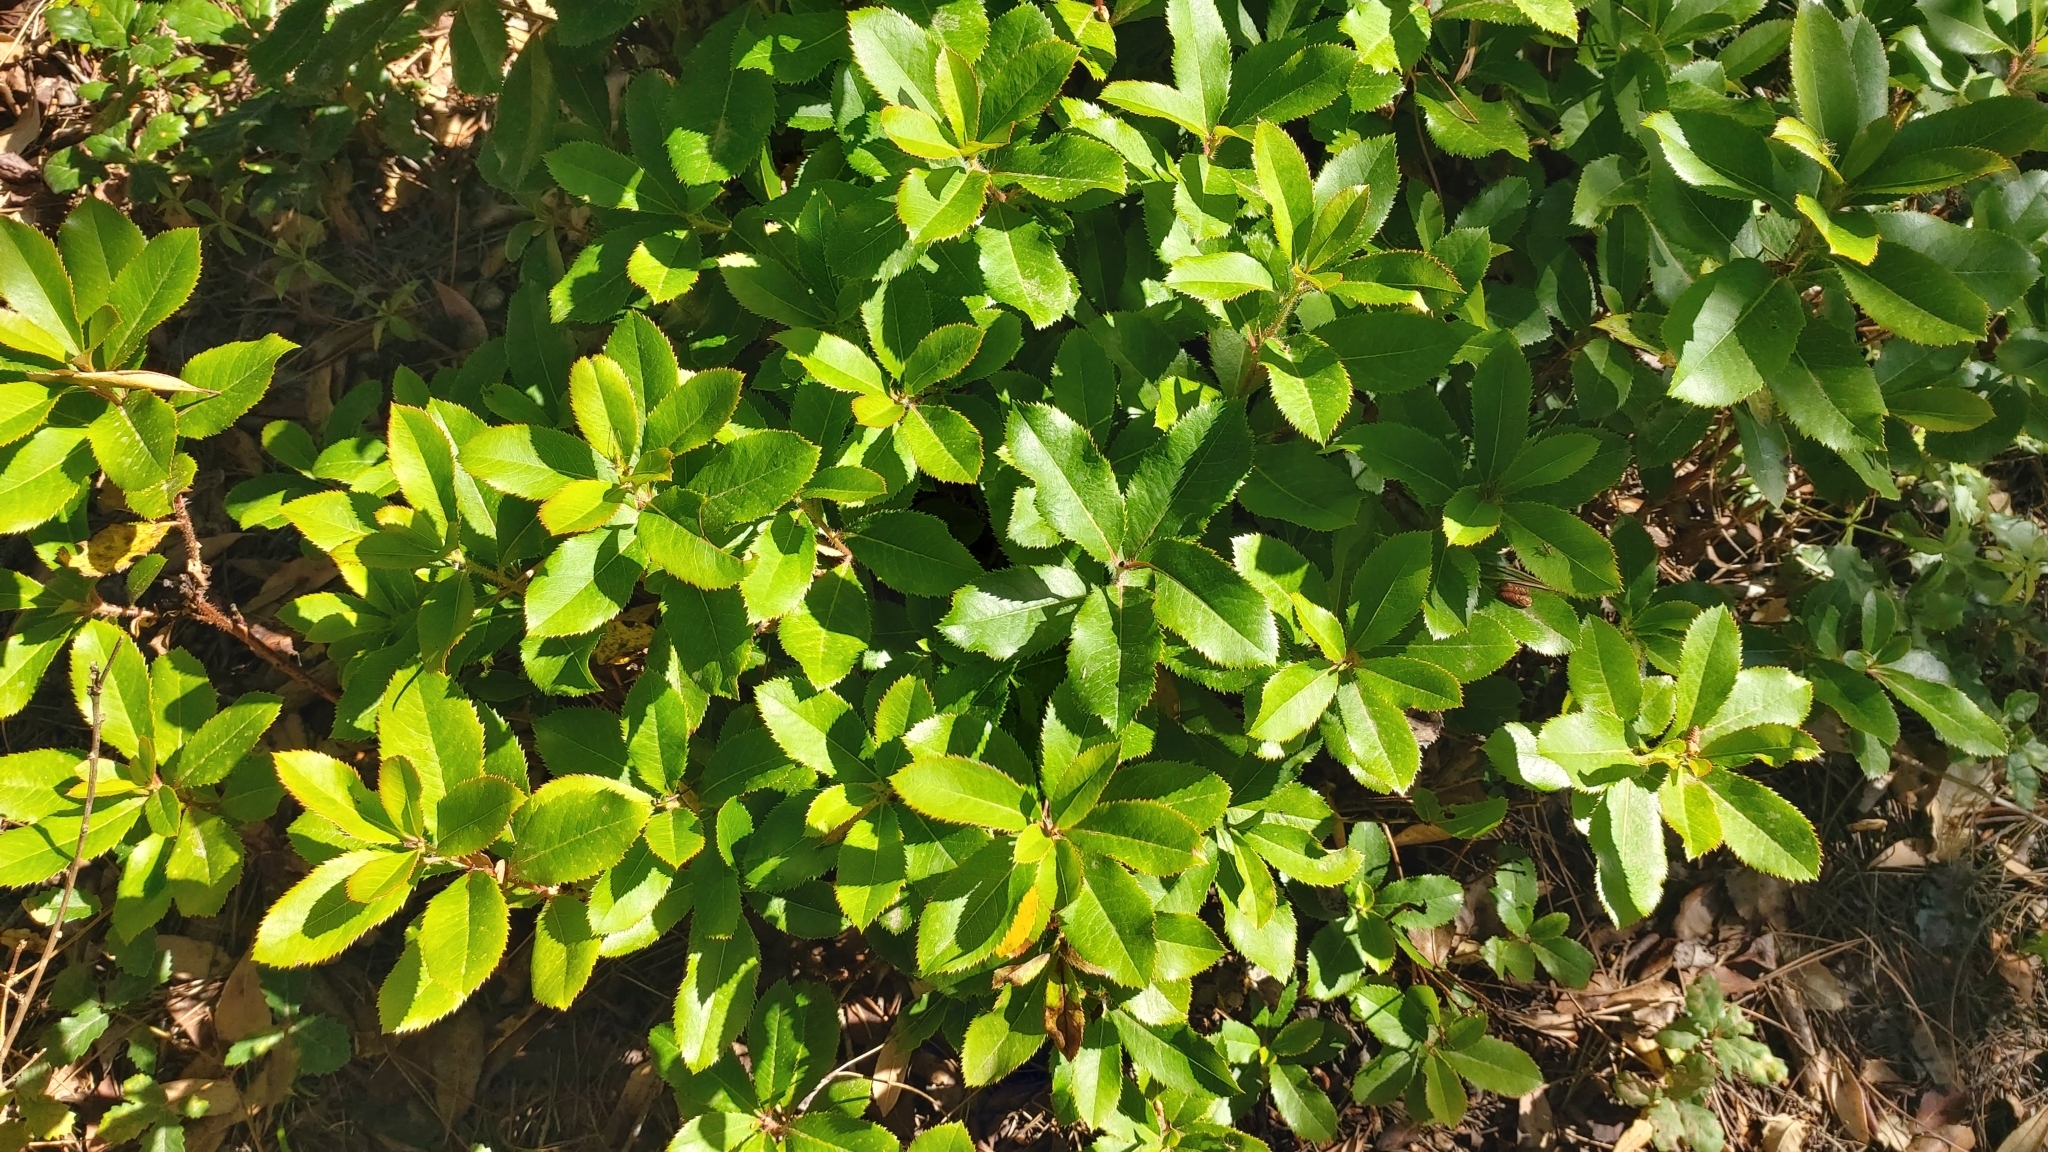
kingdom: Plantae
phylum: Tracheophyta
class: Magnoliopsida
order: Ericales
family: Ericaceae
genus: Arbutus
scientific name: Arbutus unedo
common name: Strawberry-tree
